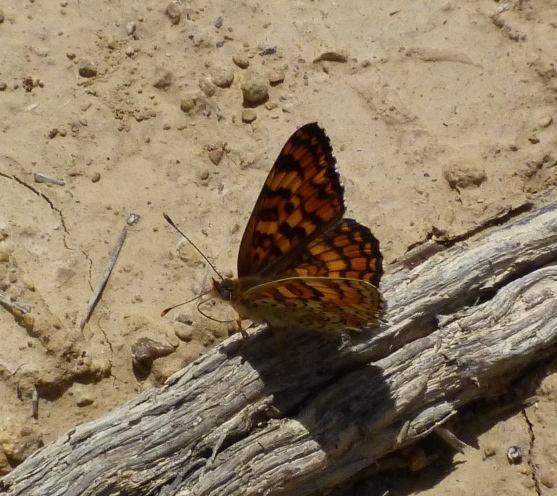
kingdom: Animalia
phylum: Arthropoda
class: Insecta
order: Lepidoptera
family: Nymphalidae
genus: Melitaea
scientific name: Melitaea phoebe
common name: Knapweed fritillary
